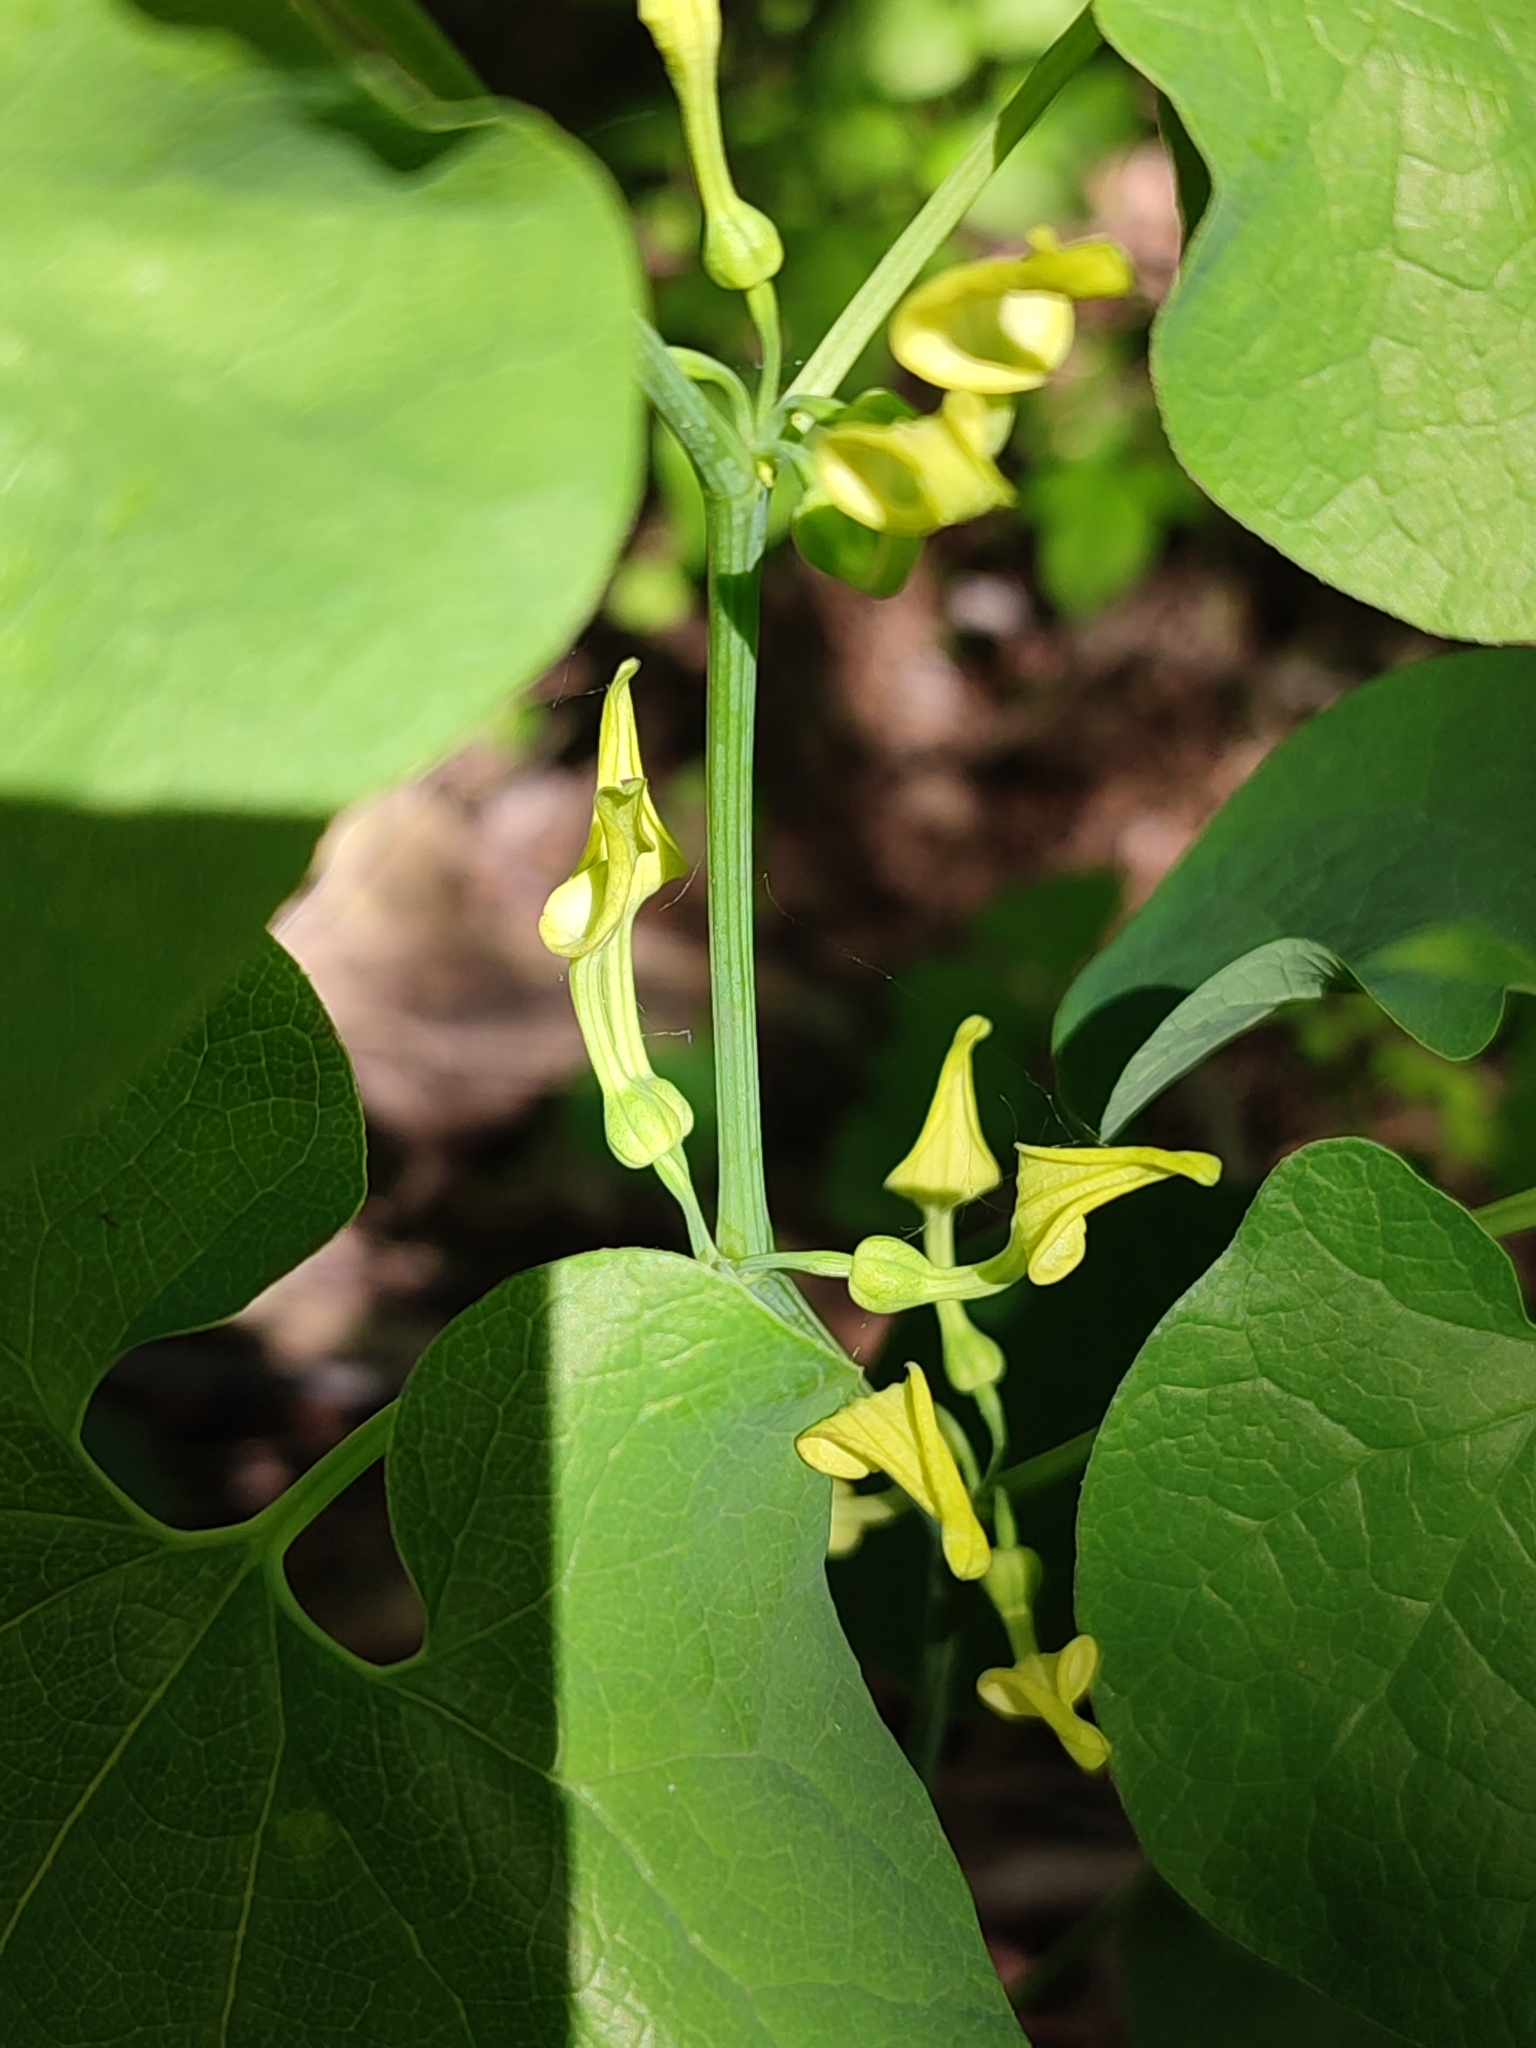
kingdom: Plantae
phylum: Tracheophyta
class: Magnoliopsida
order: Piperales
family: Aristolochiaceae
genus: Aristolochia
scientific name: Aristolochia clematitis
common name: Birthwort
